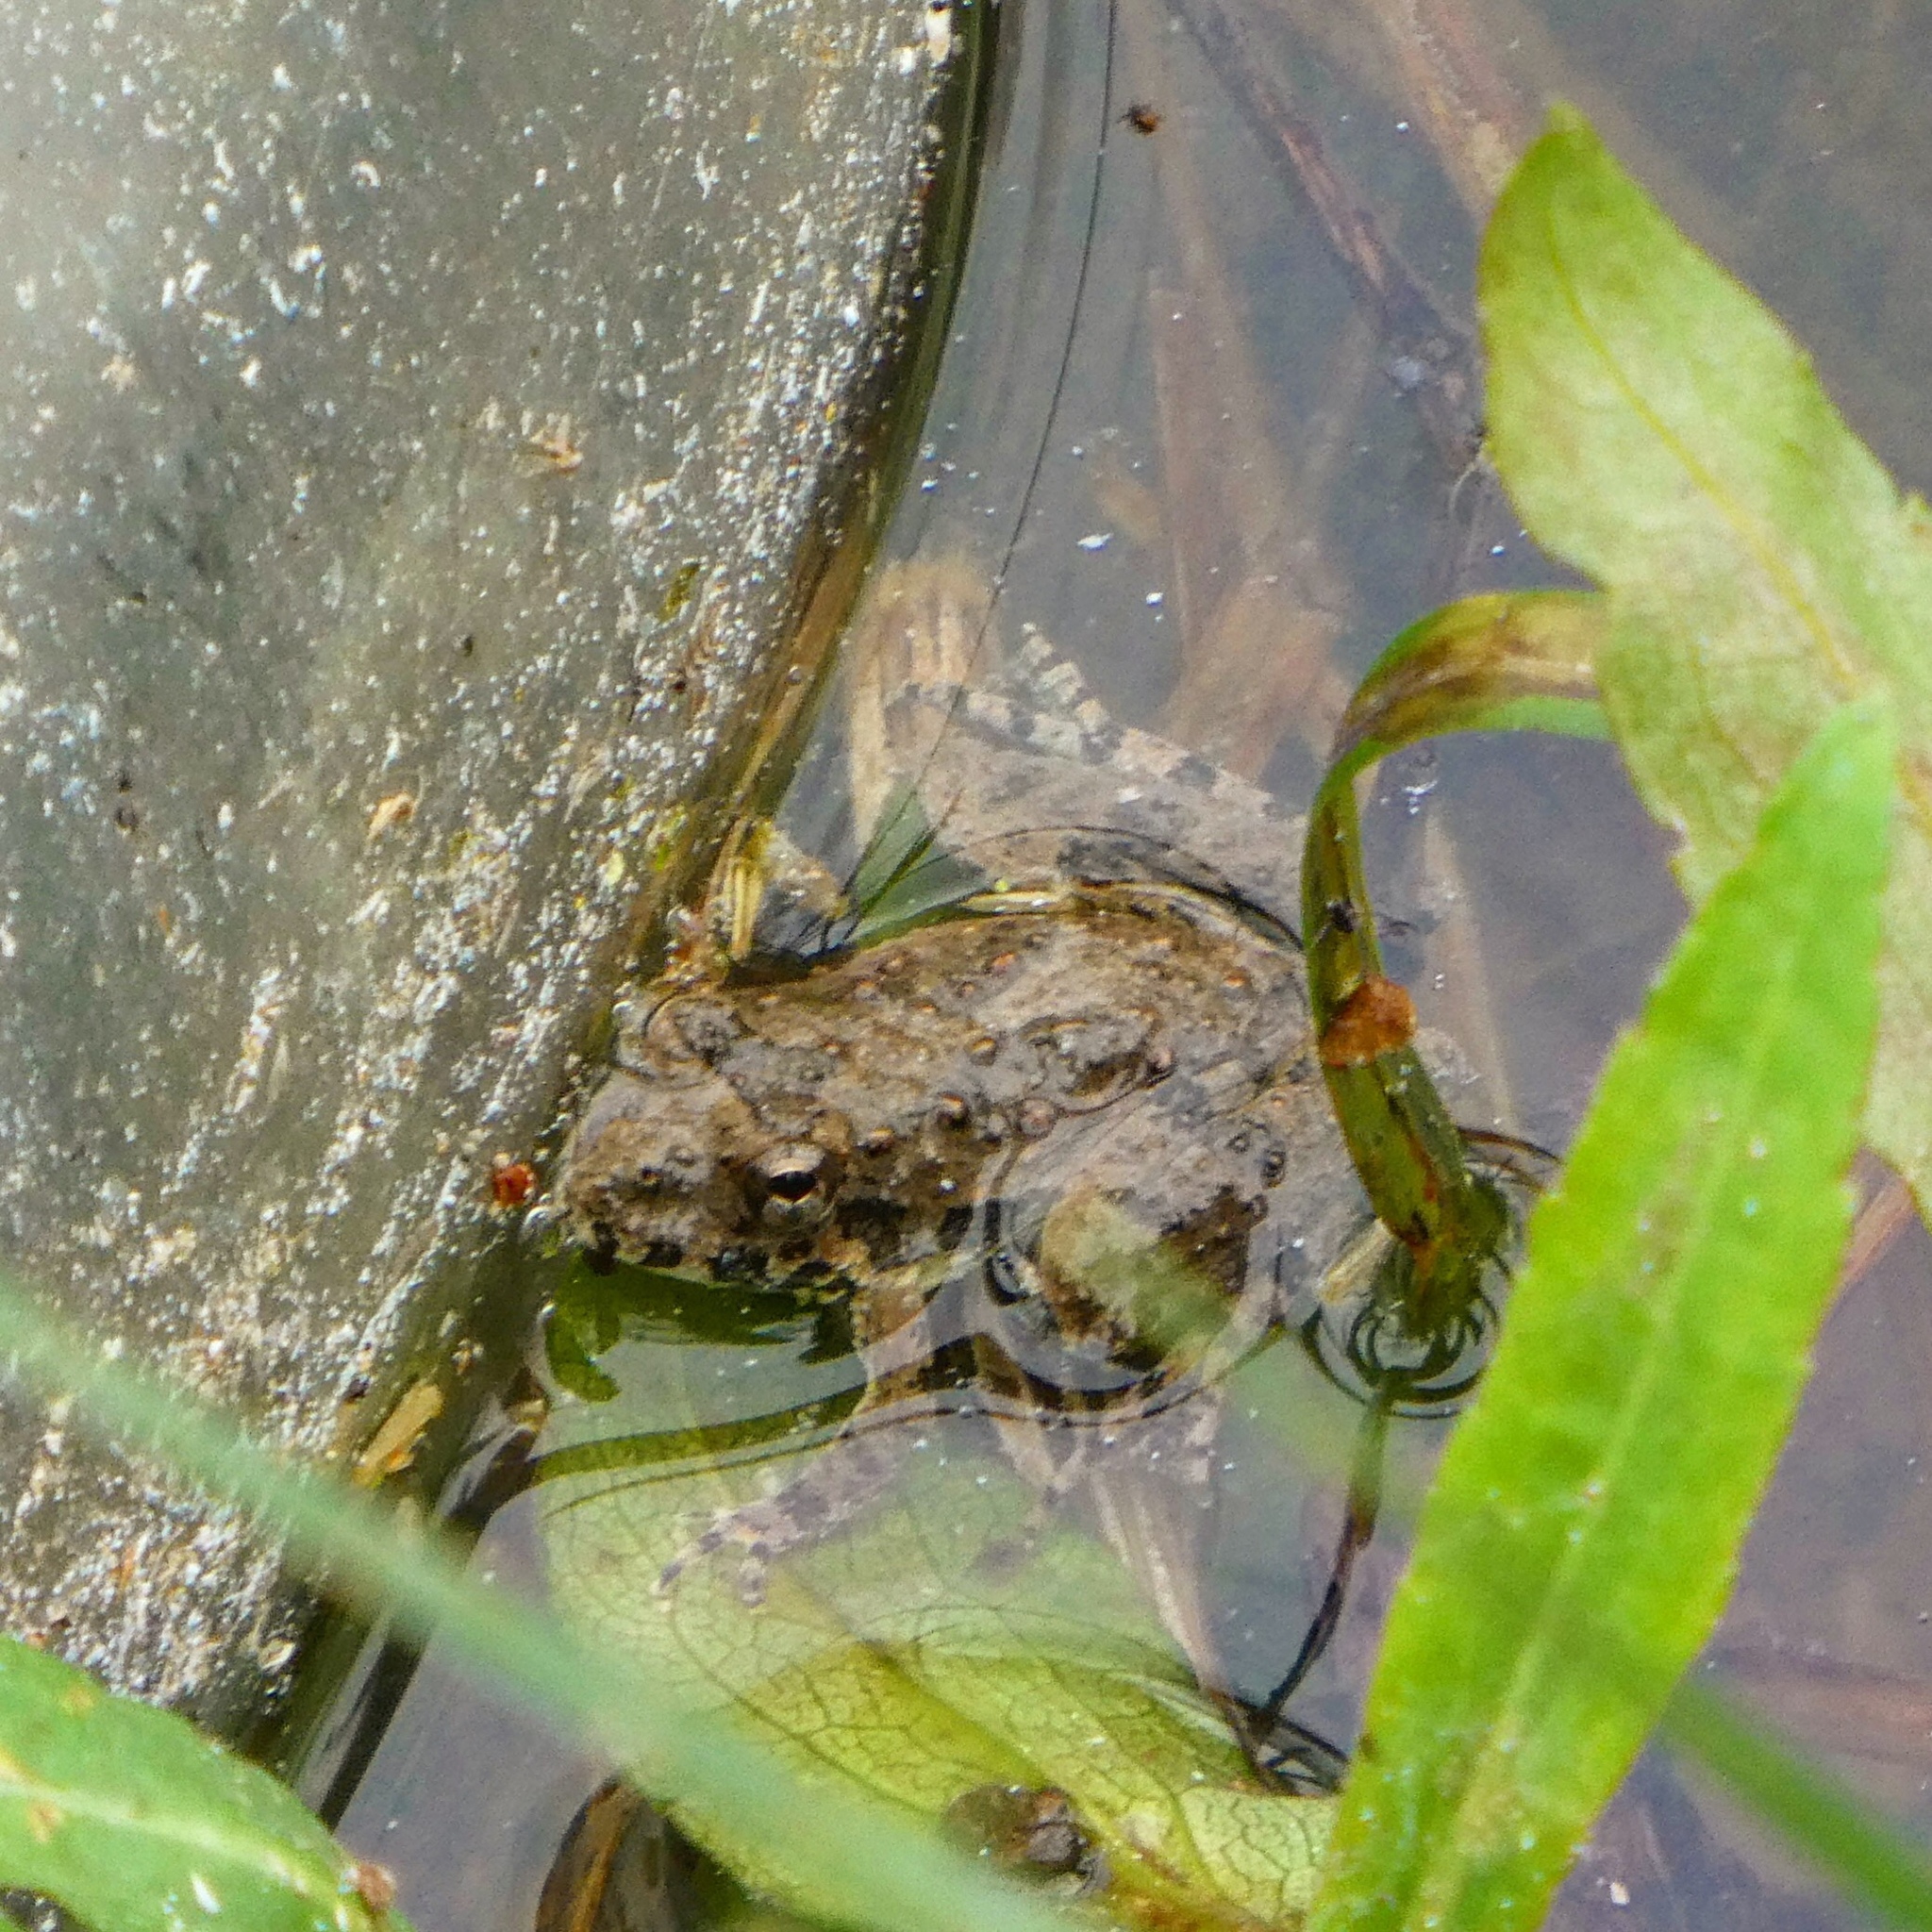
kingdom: Animalia
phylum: Chordata
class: Amphibia
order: Anura
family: Hylidae
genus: Acris
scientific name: Acris blanchardi
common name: Blanchard's cricket frog
